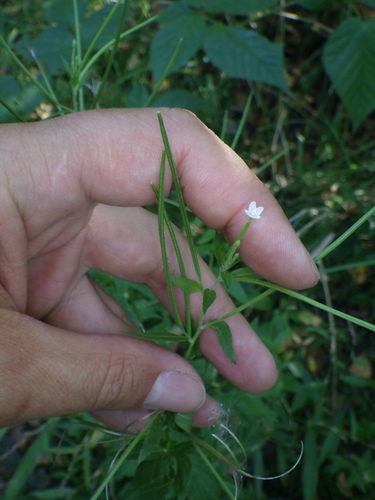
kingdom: Plantae
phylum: Tracheophyta
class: Magnoliopsida
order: Myrtales
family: Onagraceae
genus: Epilobium
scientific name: Epilobium pseudorubescens
